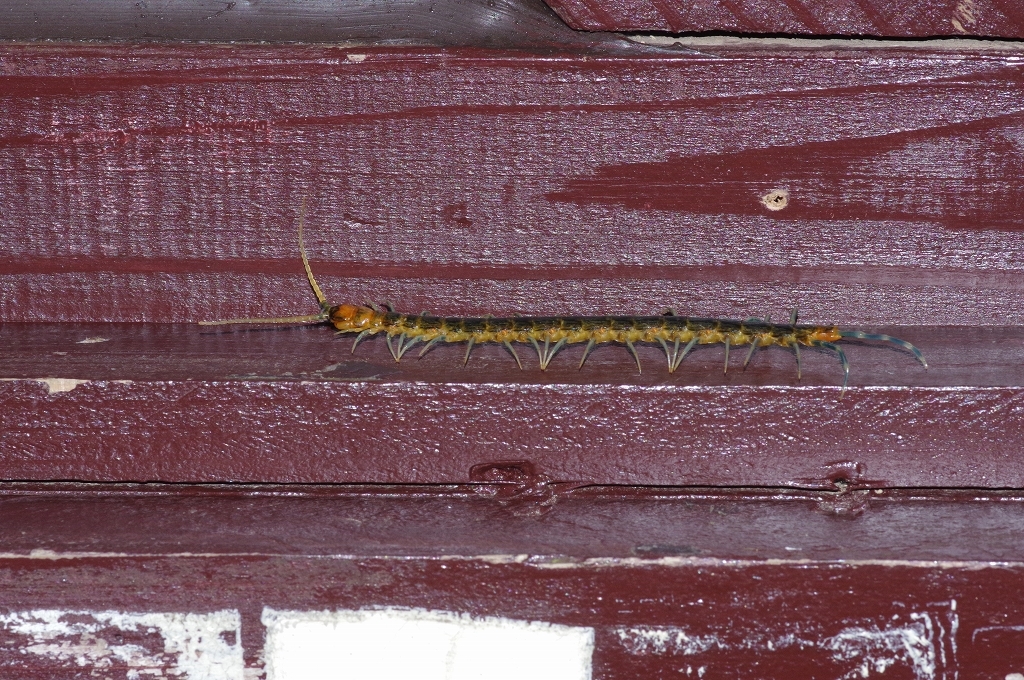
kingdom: Animalia
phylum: Arthropoda
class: Chilopoda
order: Scolopendromorpha
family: Scolopendridae
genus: Otostigmus
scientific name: Otostigmus scaber
